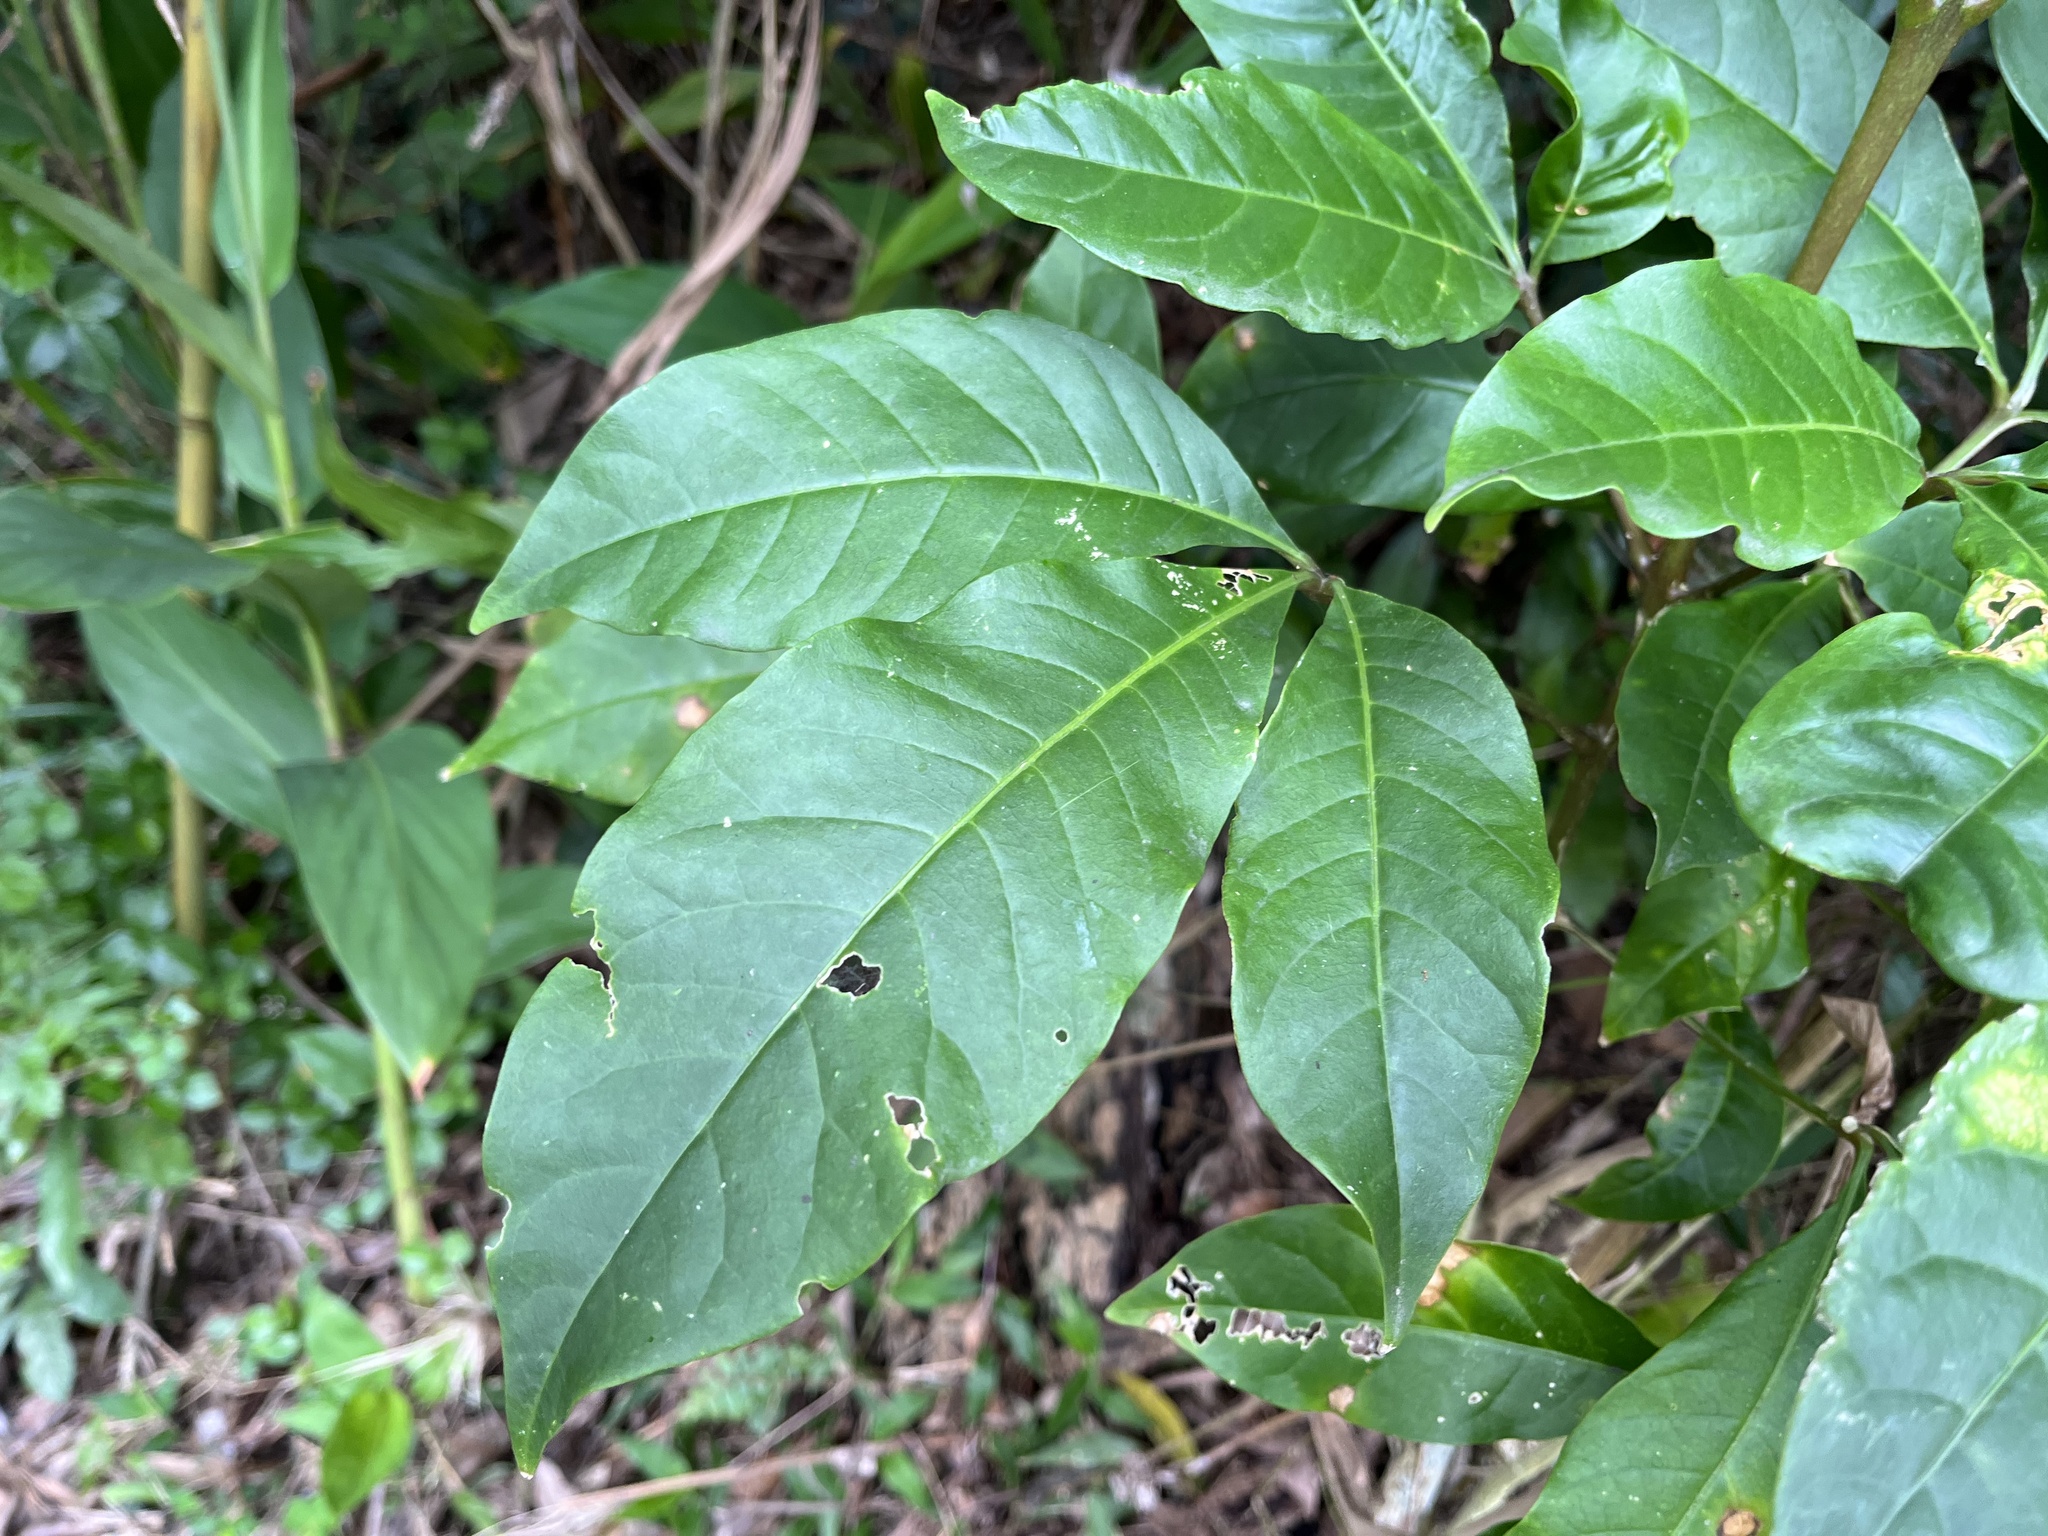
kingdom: Plantae
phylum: Tracheophyta
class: Magnoliopsida
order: Sapindales
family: Rutaceae
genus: Melicope
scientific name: Melicope pteleifolia
